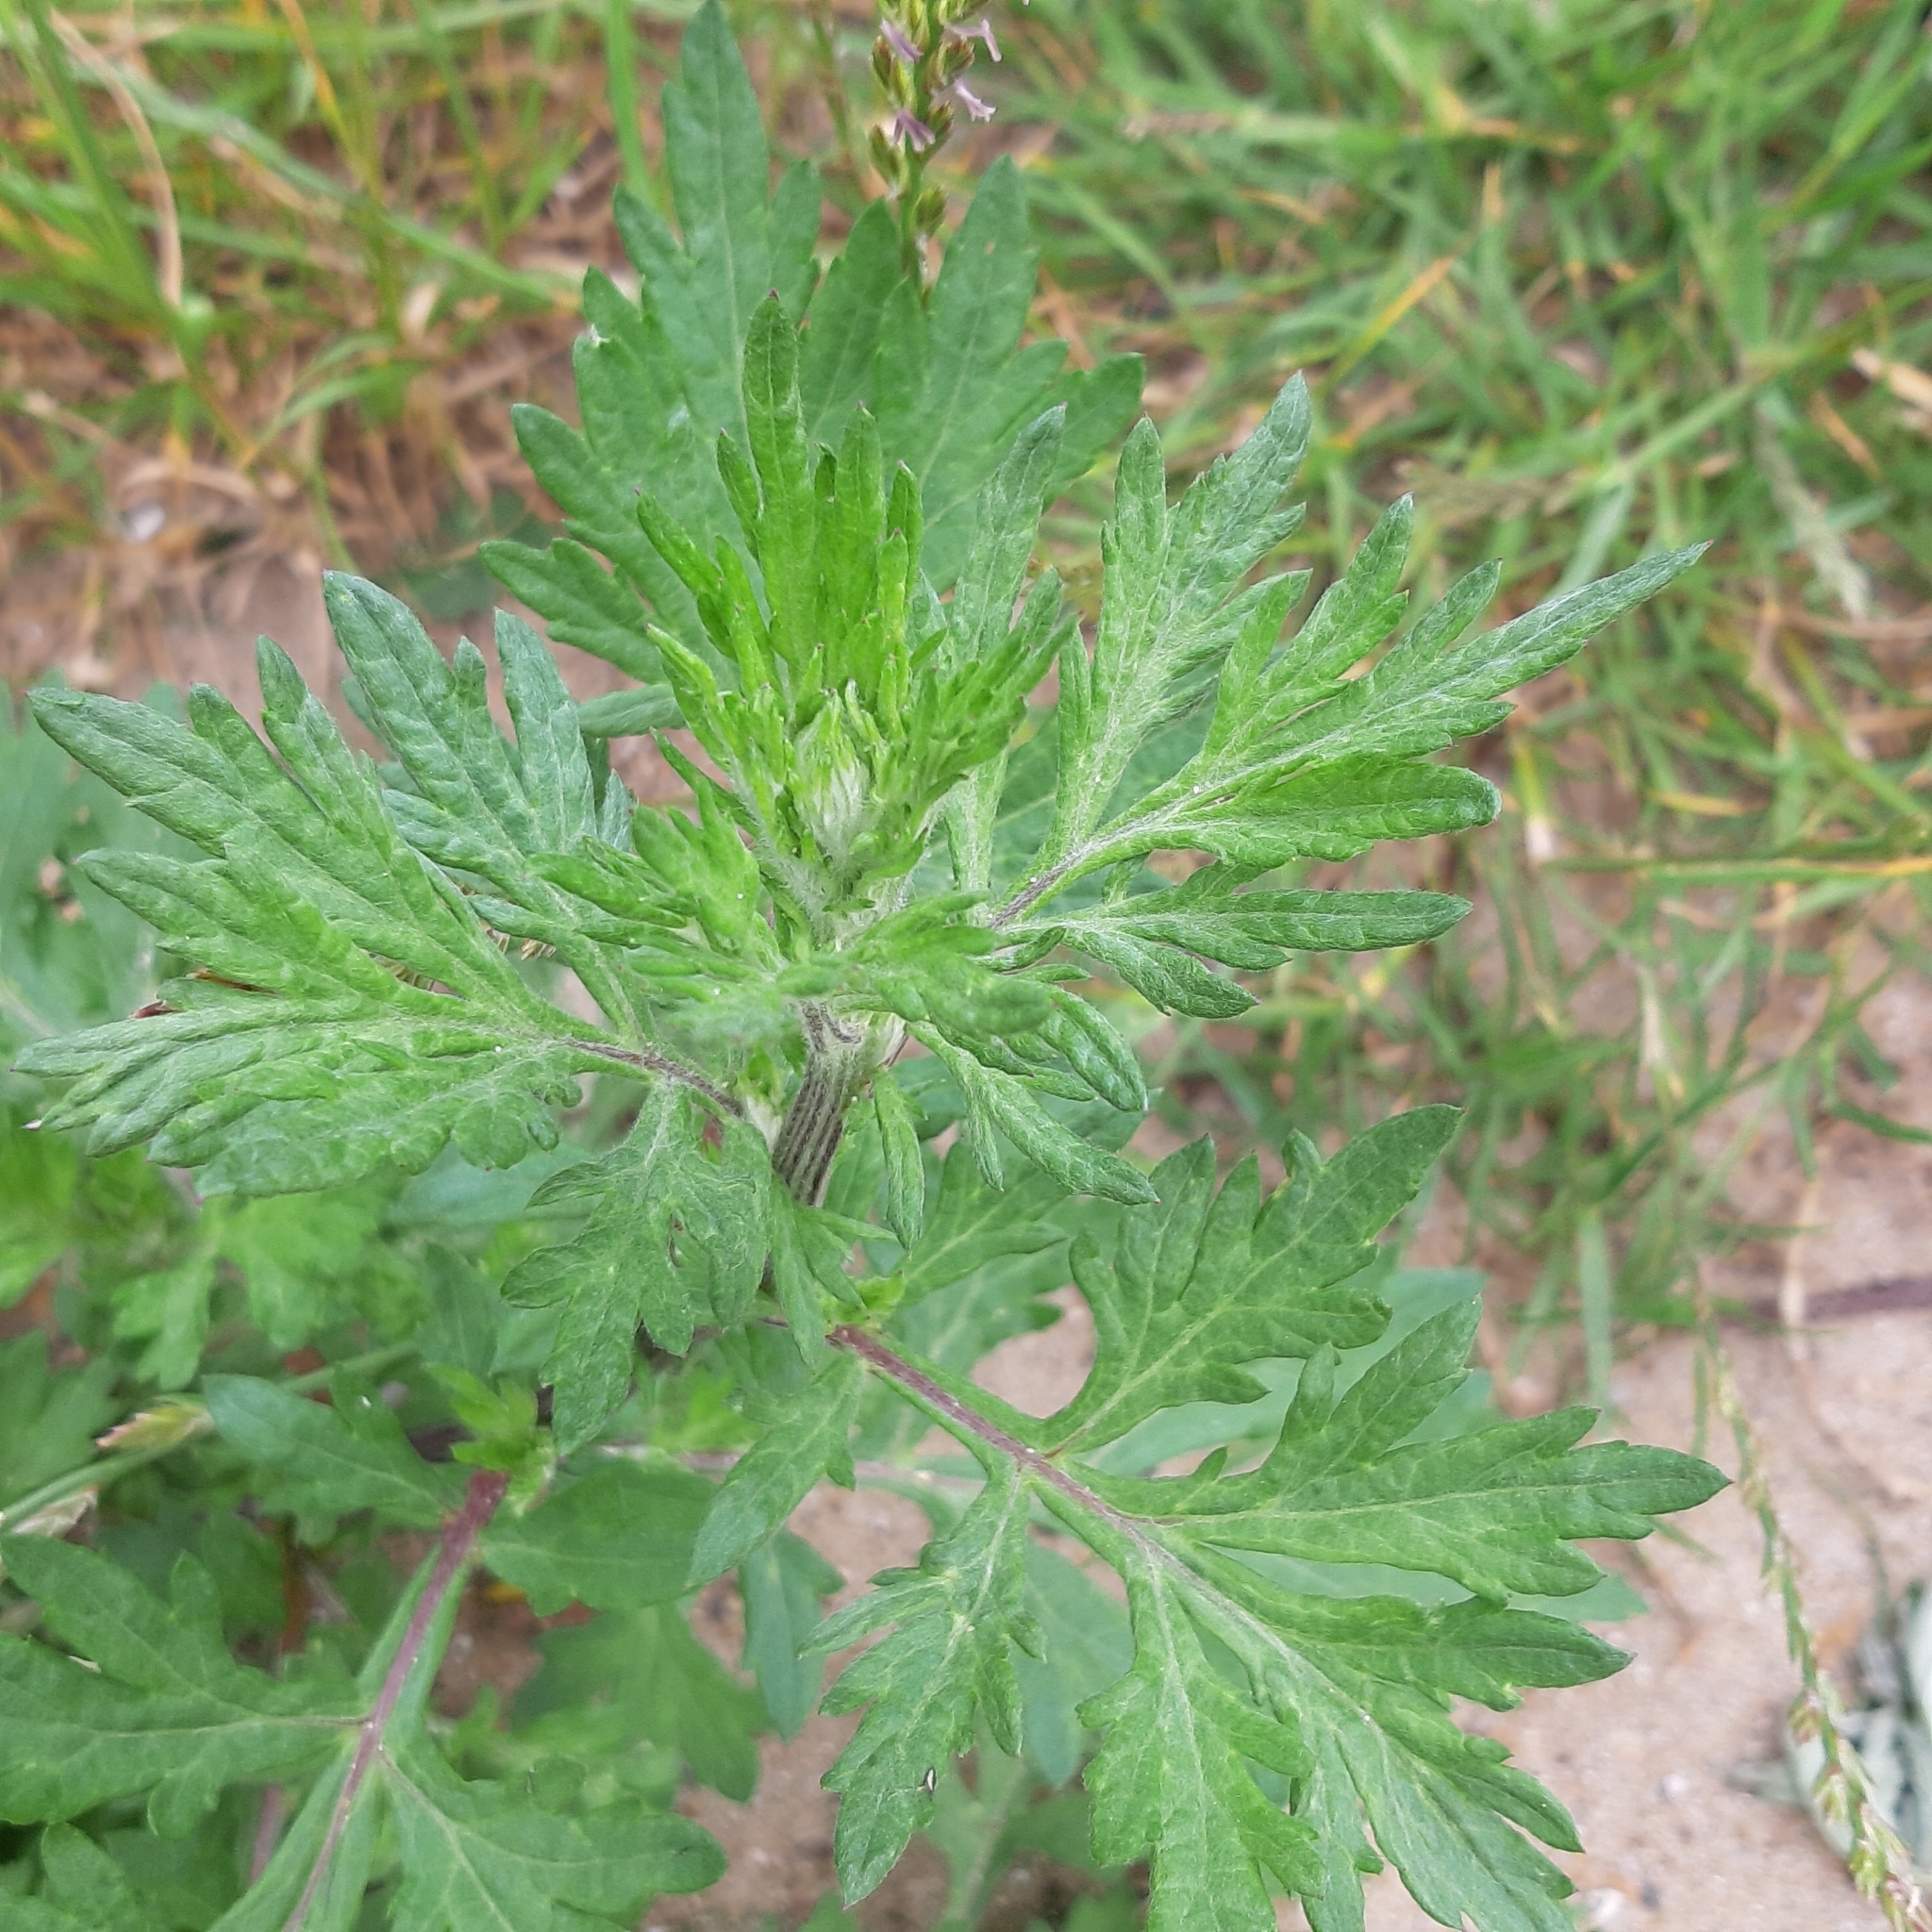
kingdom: Plantae
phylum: Tracheophyta
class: Magnoliopsida
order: Asterales
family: Asteraceae
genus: Artemisia
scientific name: Artemisia vulgaris
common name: Mugwort
